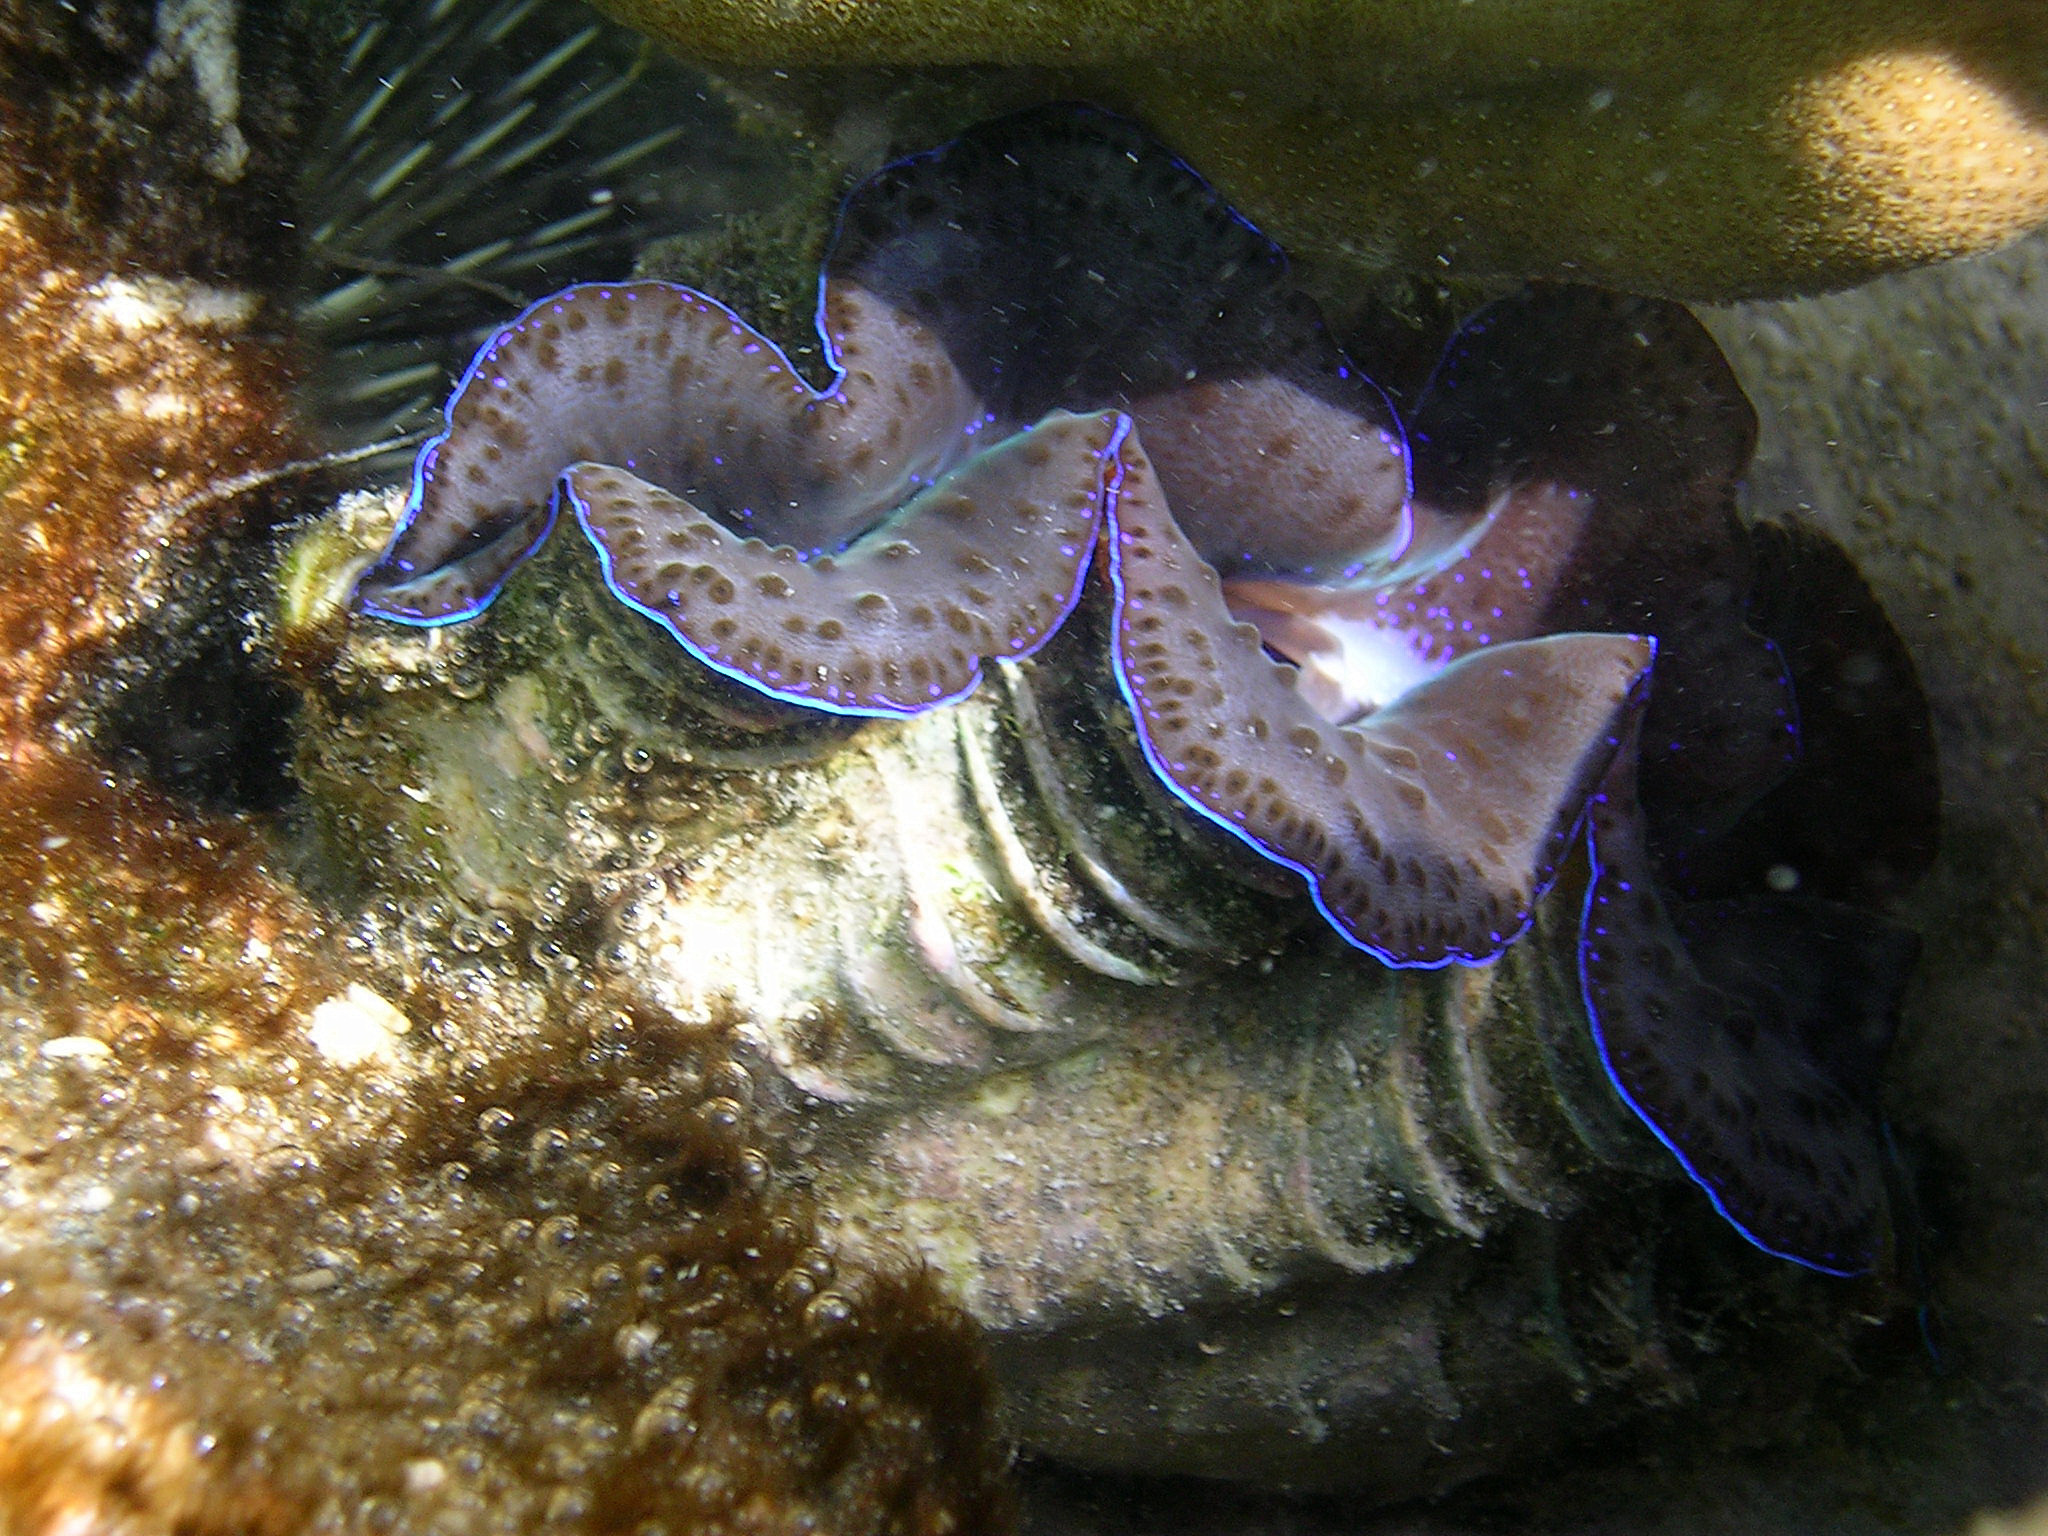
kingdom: Animalia
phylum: Mollusca
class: Bivalvia
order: Cardiida
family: Cardiidae
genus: Tridacna
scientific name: Tridacna maxima
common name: Small giant clam
